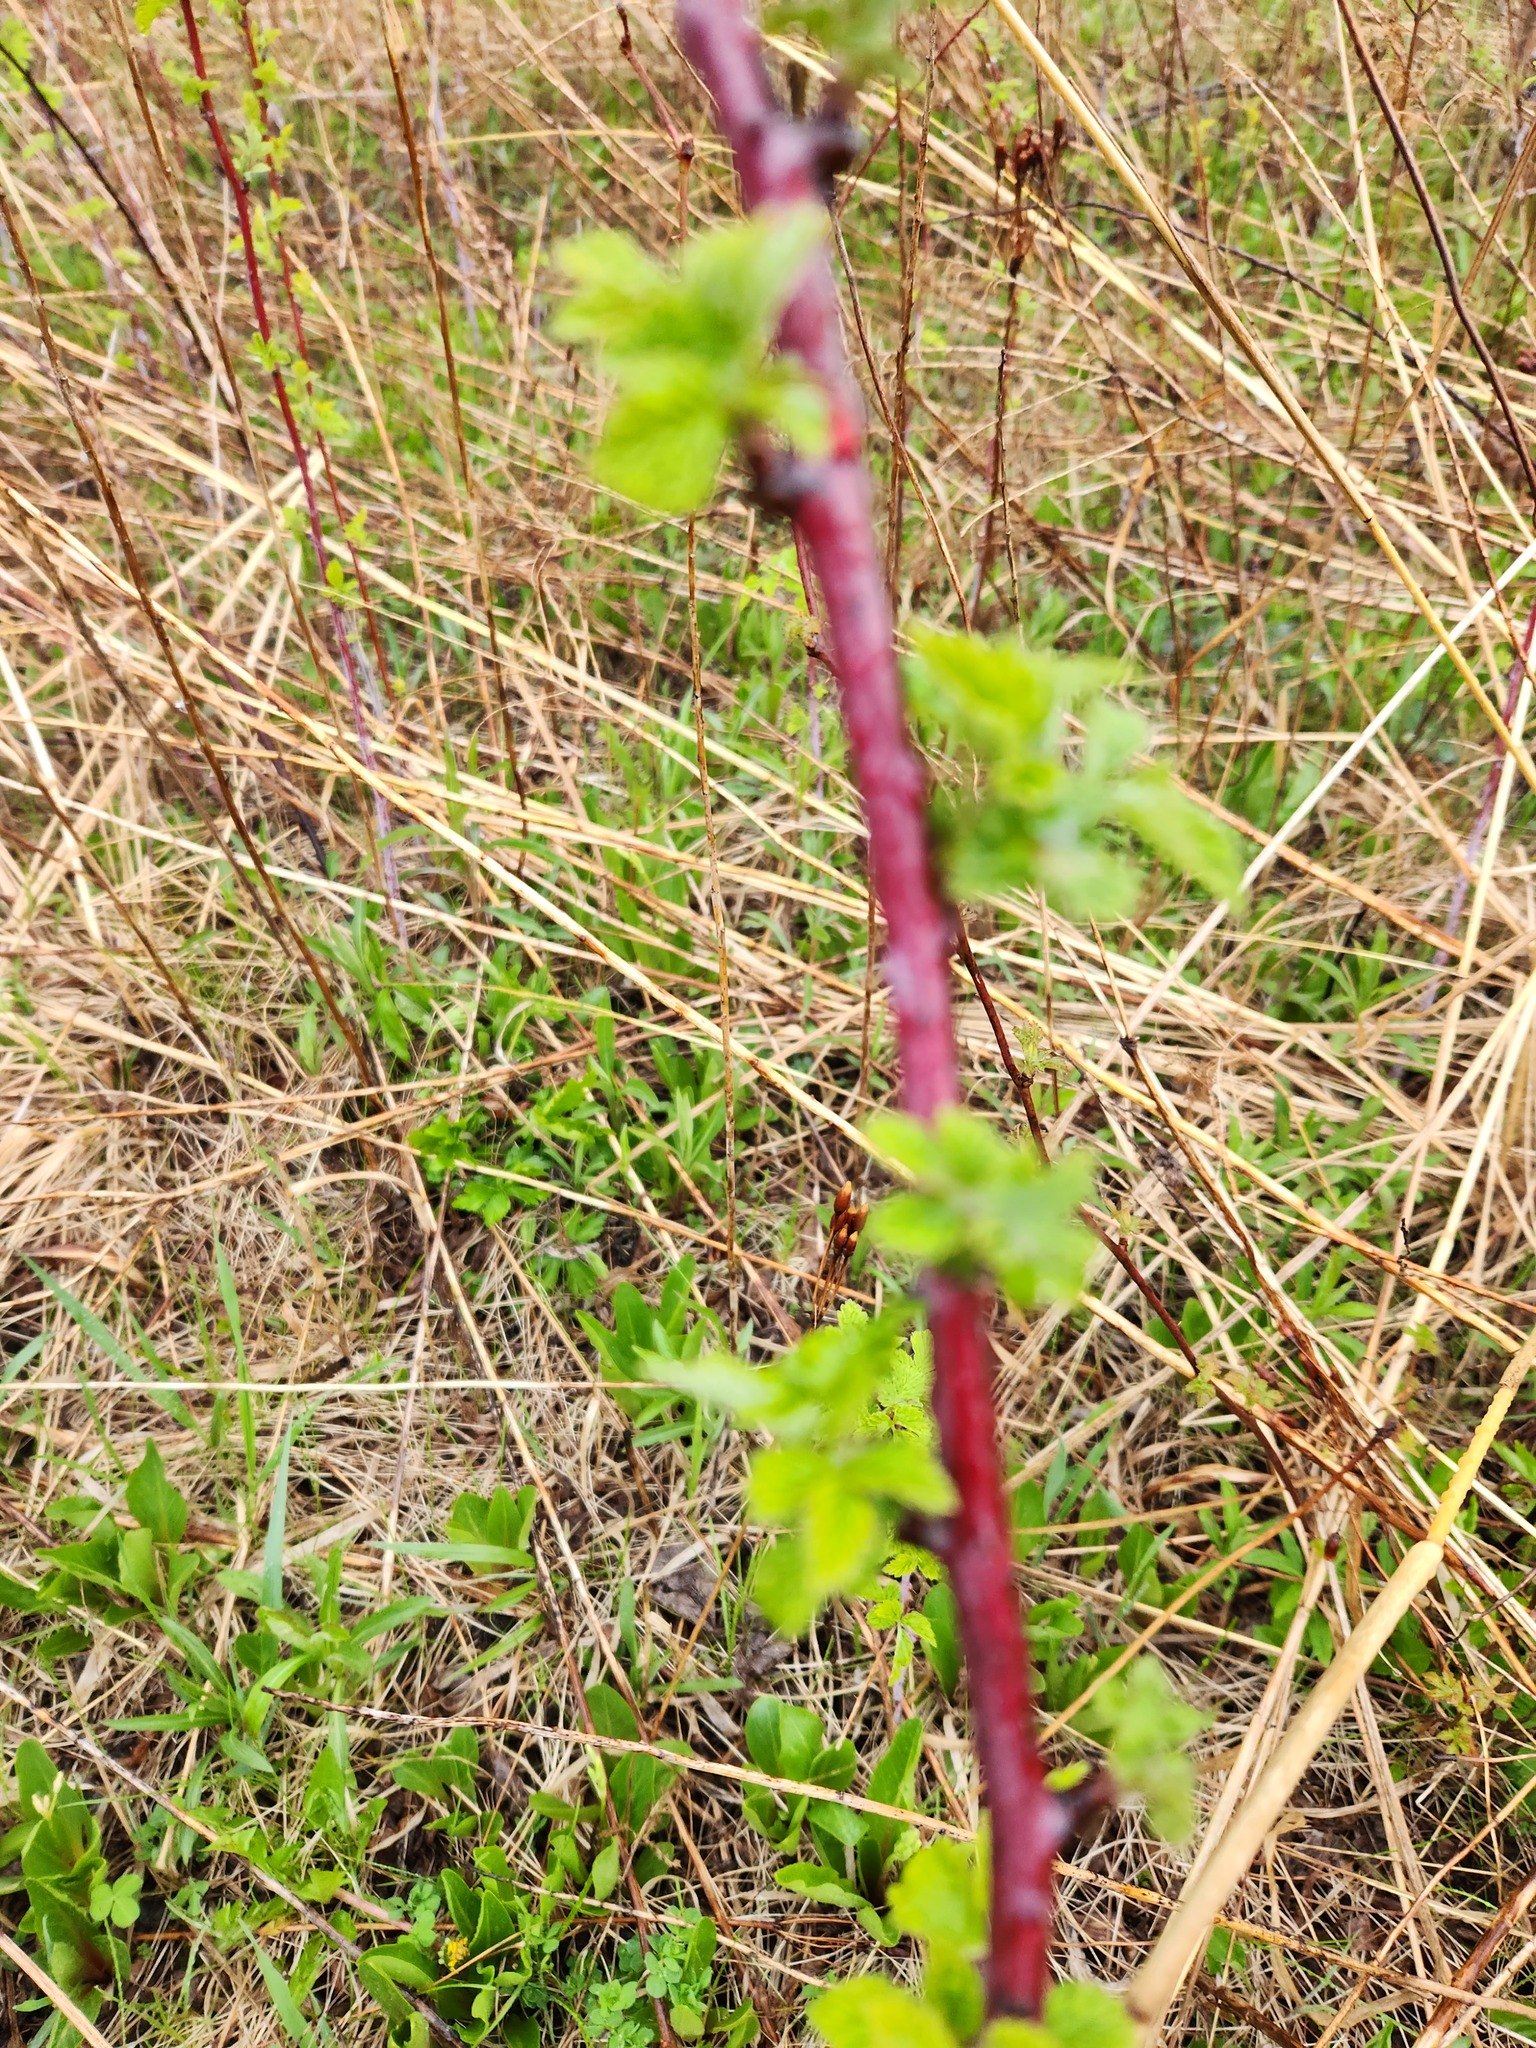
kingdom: Plantae
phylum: Tracheophyta
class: Magnoliopsida
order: Rosales
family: Rosaceae
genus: Rubus
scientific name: Rubus occidentalis
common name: Black raspberry
